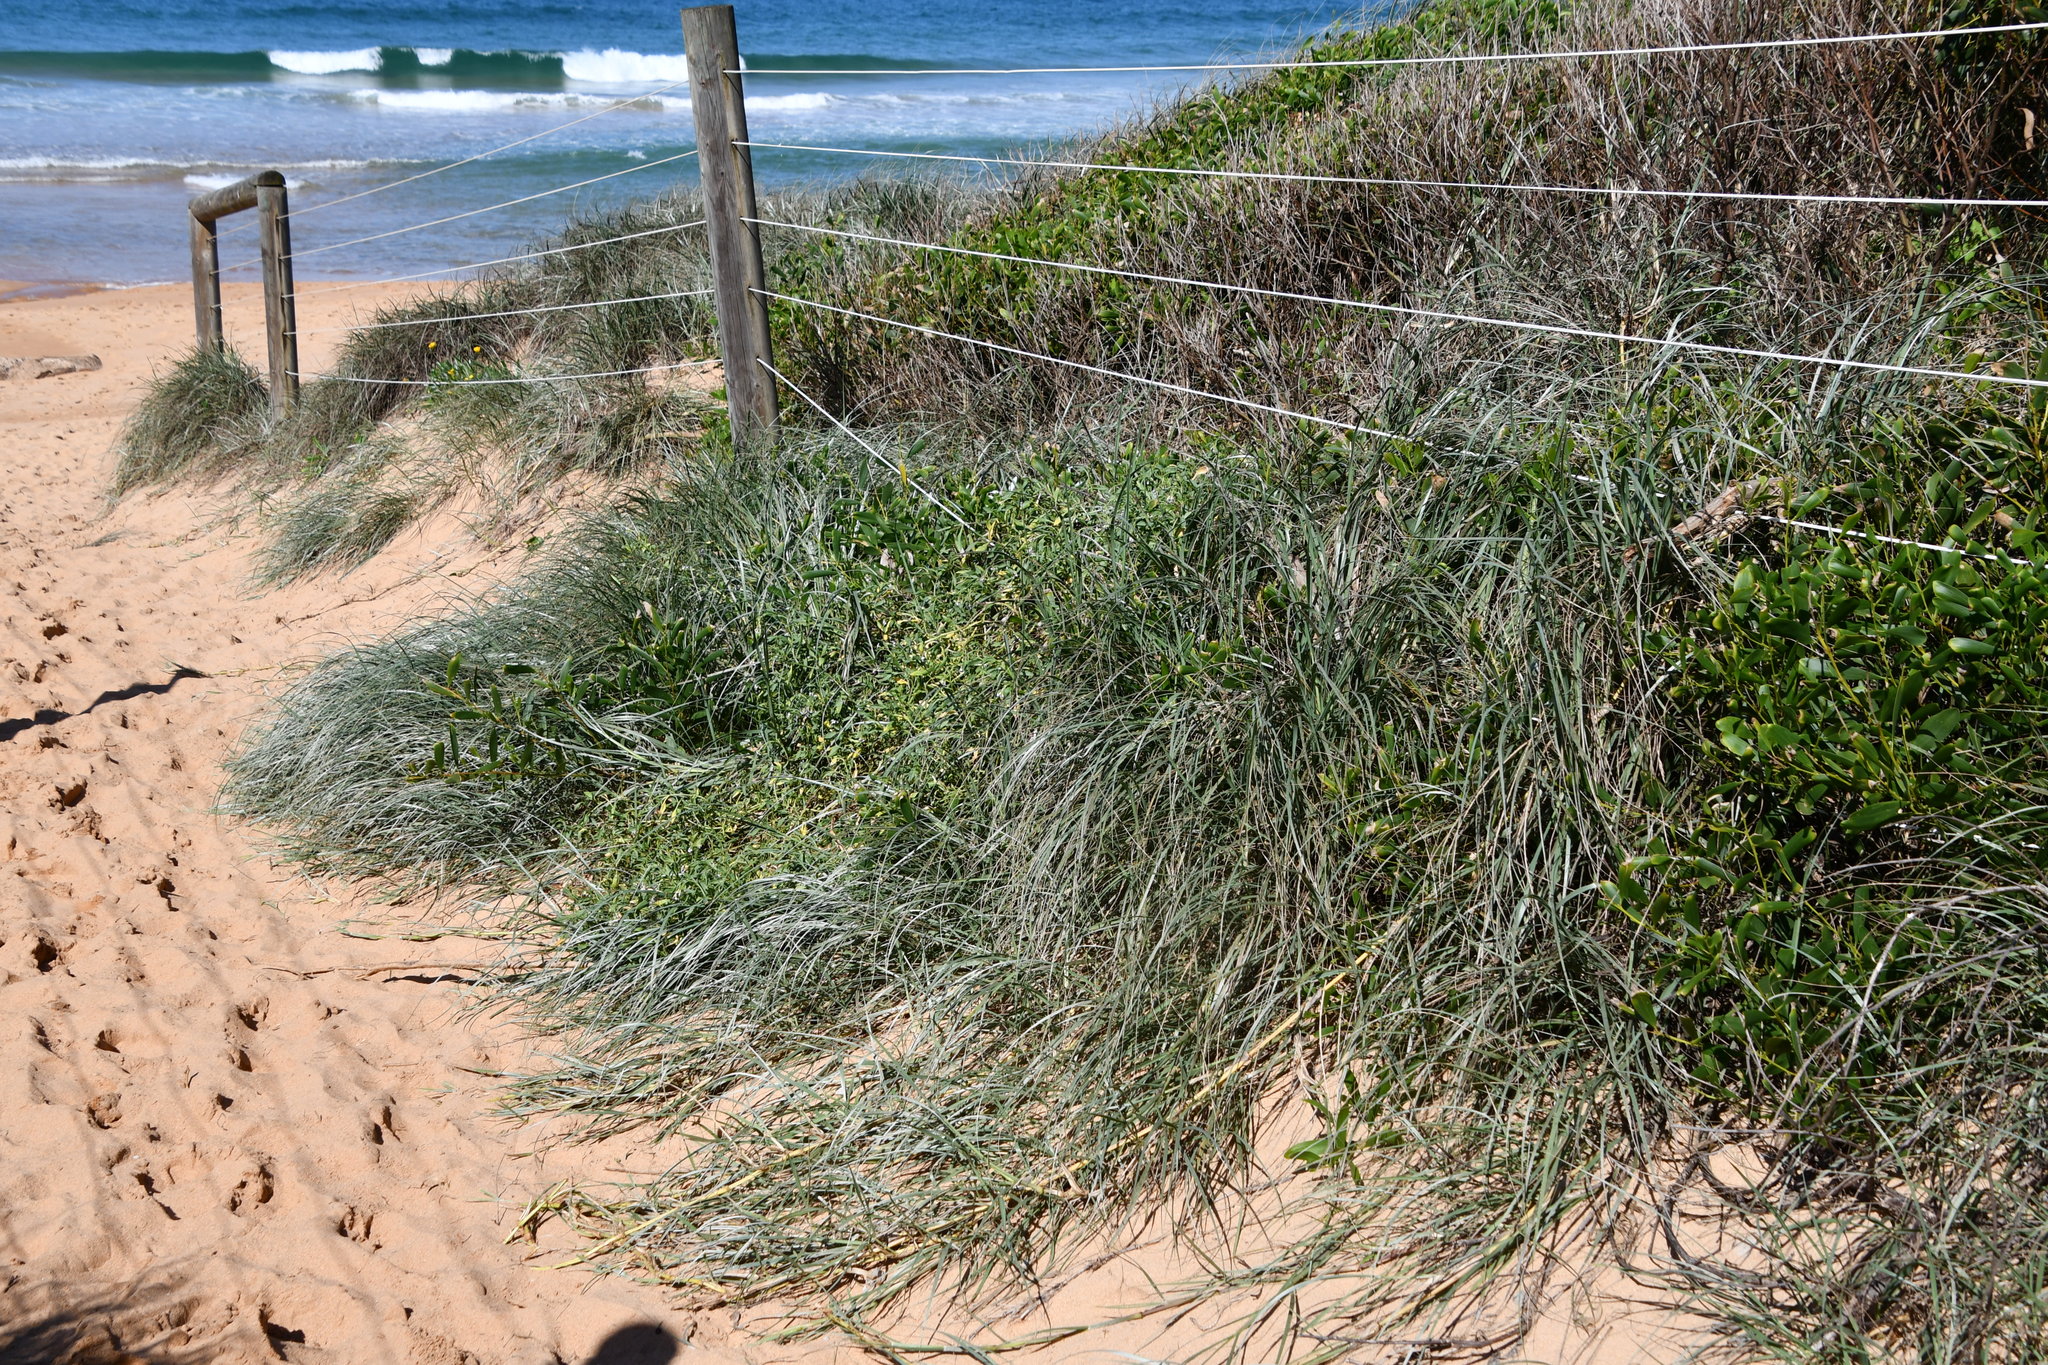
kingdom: Plantae
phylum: Tracheophyta
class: Liliopsida
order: Poales
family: Poaceae
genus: Spinifex
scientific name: Spinifex sericeus
